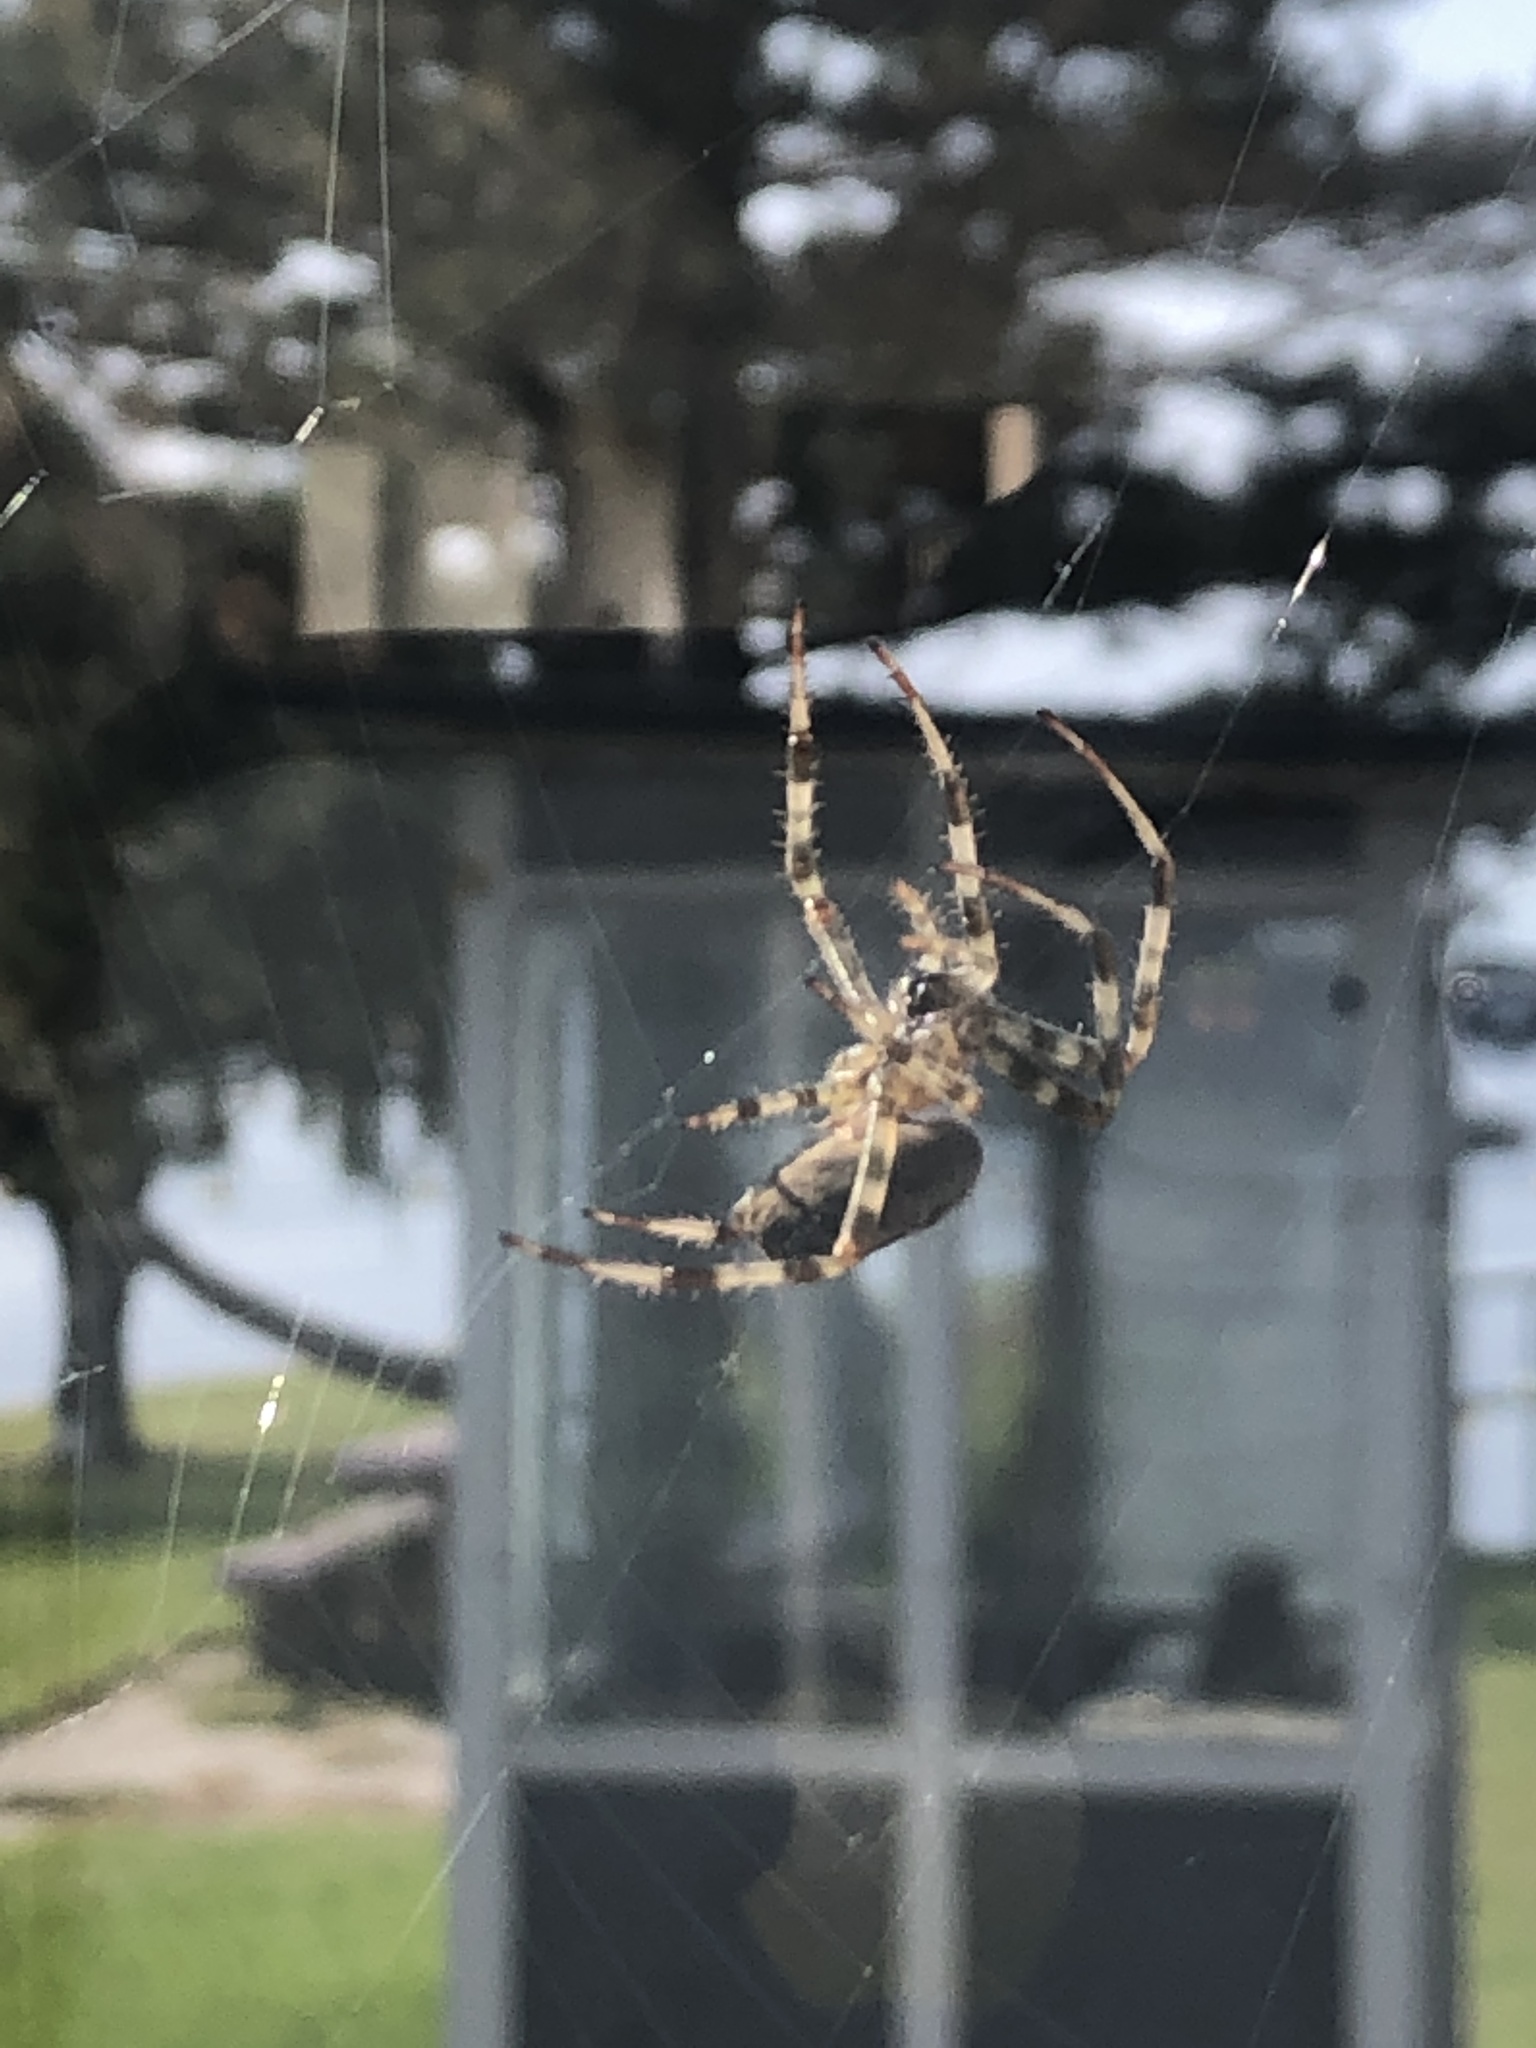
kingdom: Animalia
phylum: Arthropoda
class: Arachnida
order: Araneae
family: Araneidae
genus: Araneus
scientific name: Araneus diadematus
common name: Cross orbweaver
